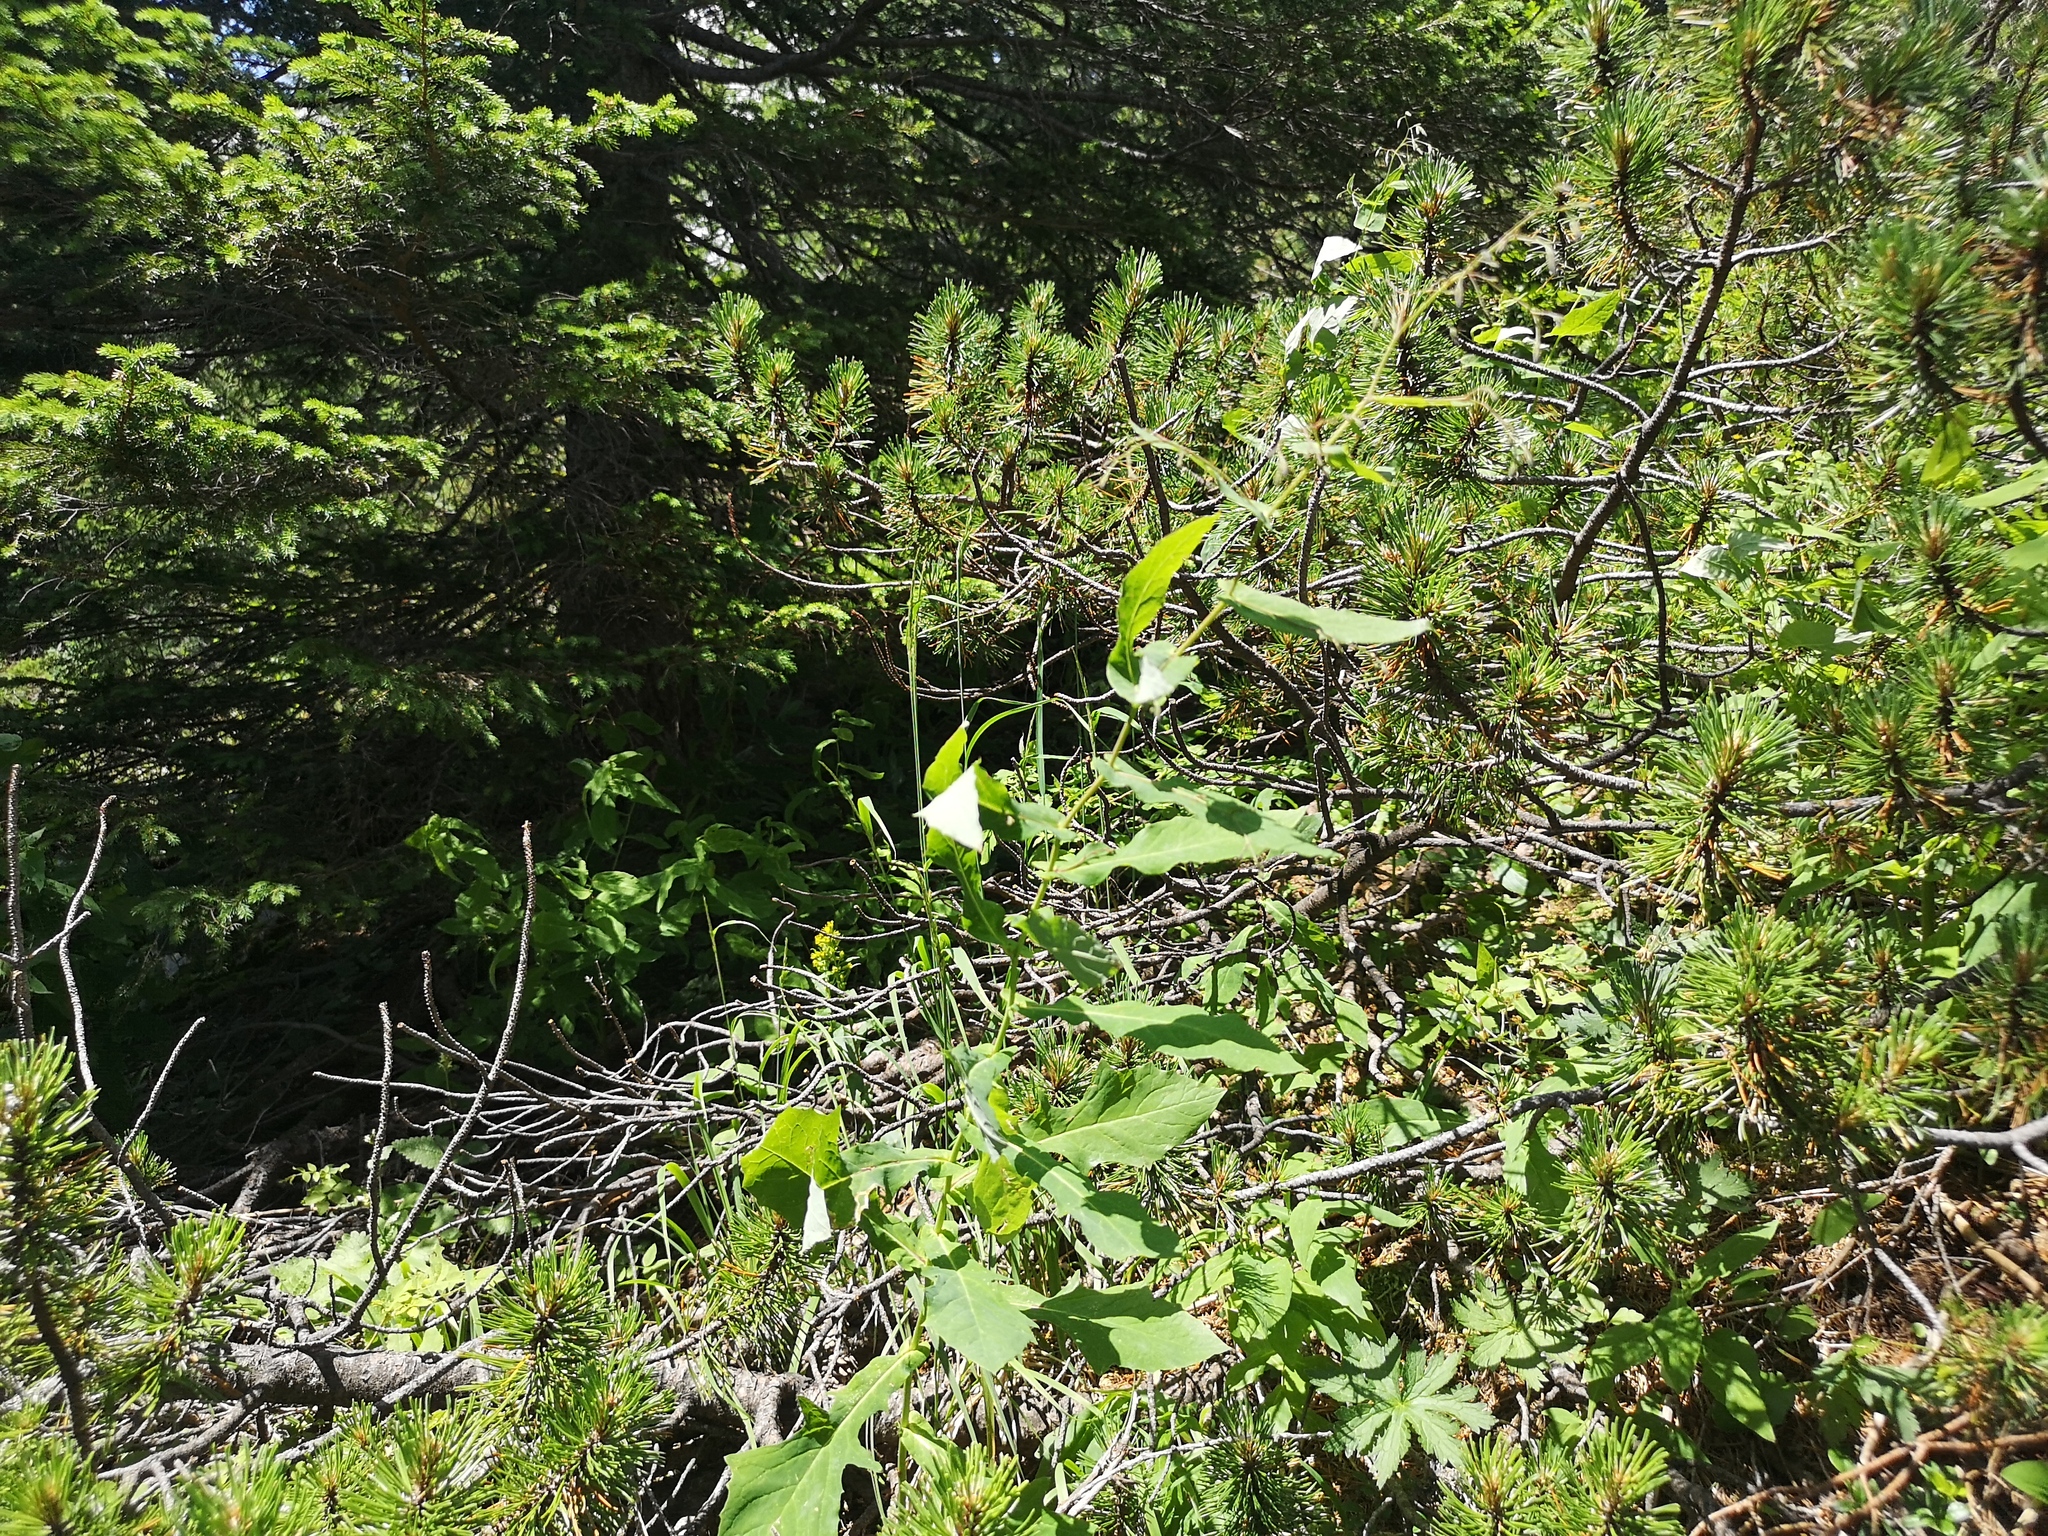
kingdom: Plantae
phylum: Tracheophyta
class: Magnoliopsida
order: Asterales
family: Asteraceae
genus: Prenanthes
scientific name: Prenanthes purpurea
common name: Purple lettuce
